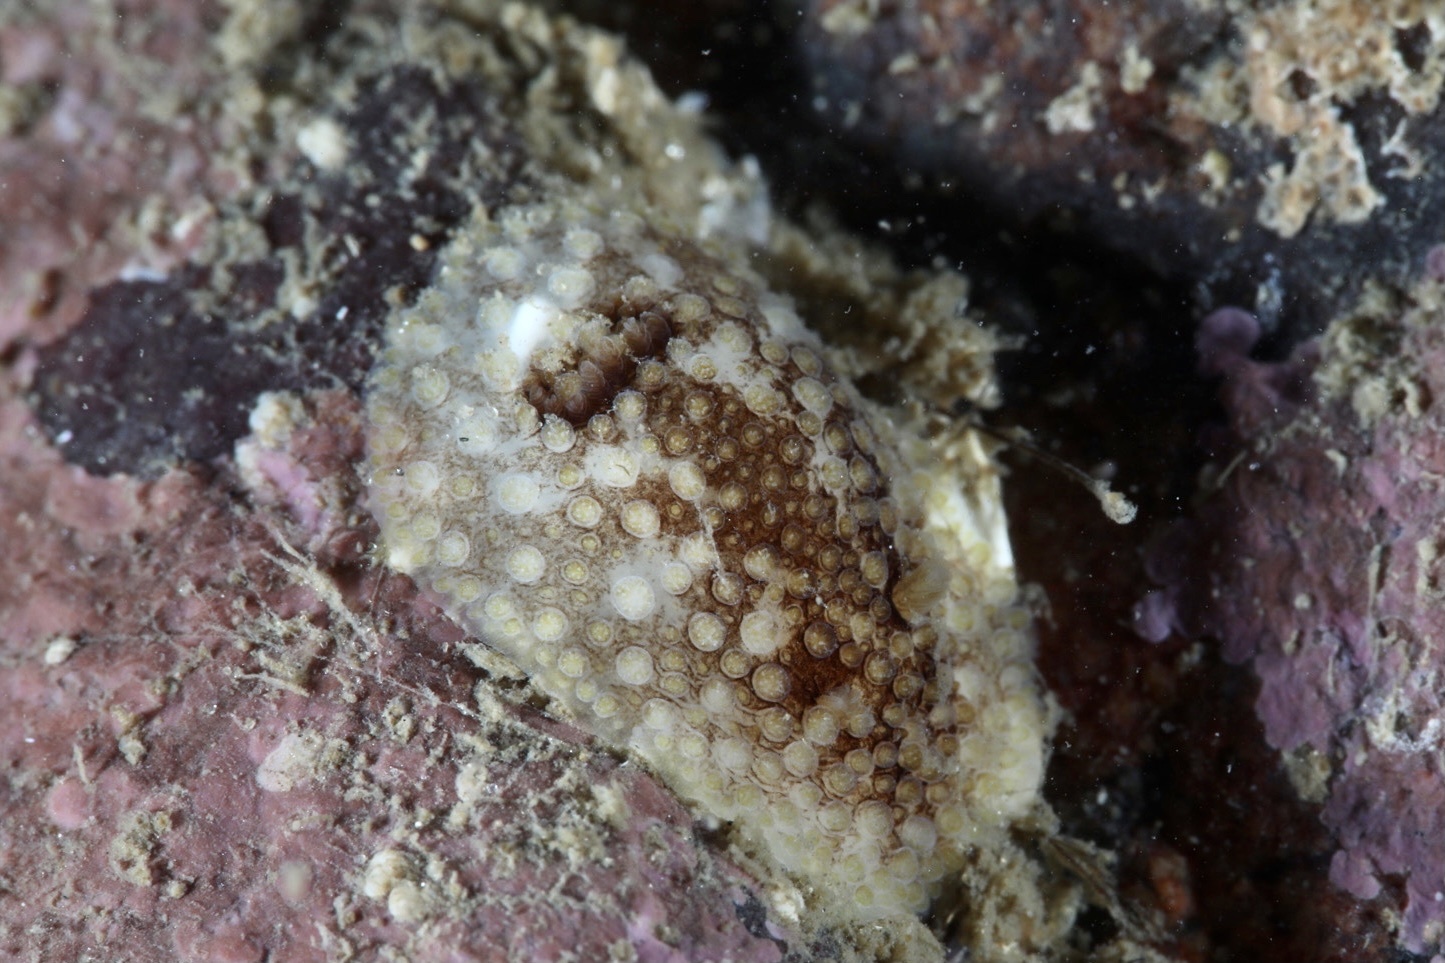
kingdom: Animalia
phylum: Mollusca
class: Gastropoda
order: Nudibranchia
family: Onchidorididae
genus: Onchidoris
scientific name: Onchidoris bilamellata
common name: Barnacle-eating onchidoris
